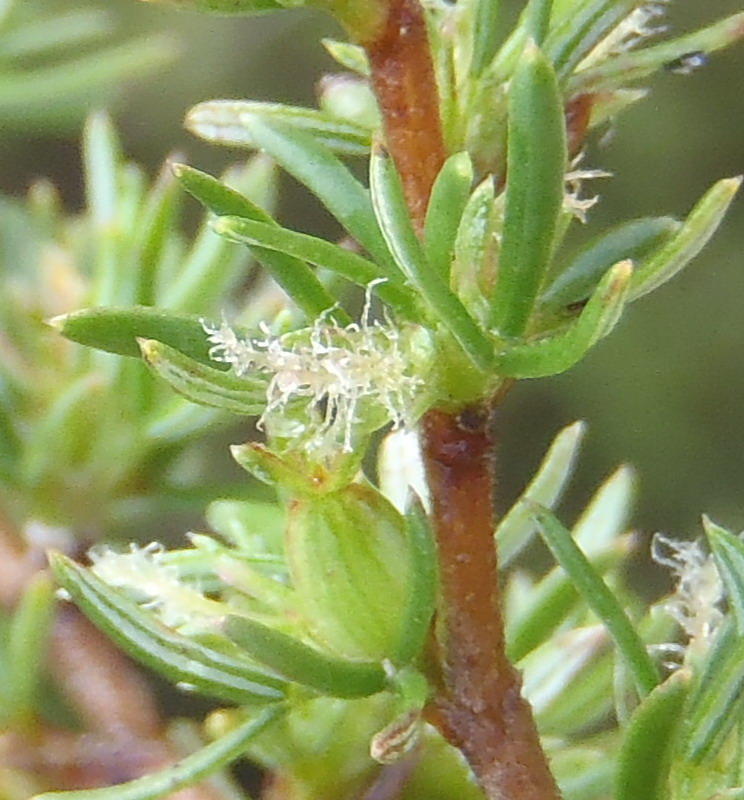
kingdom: Plantae
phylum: Tracheophyta
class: Magnoliopsida
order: Rosales
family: Rosaceae
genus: Cliffortia
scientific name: Cliffortia ramosissima
